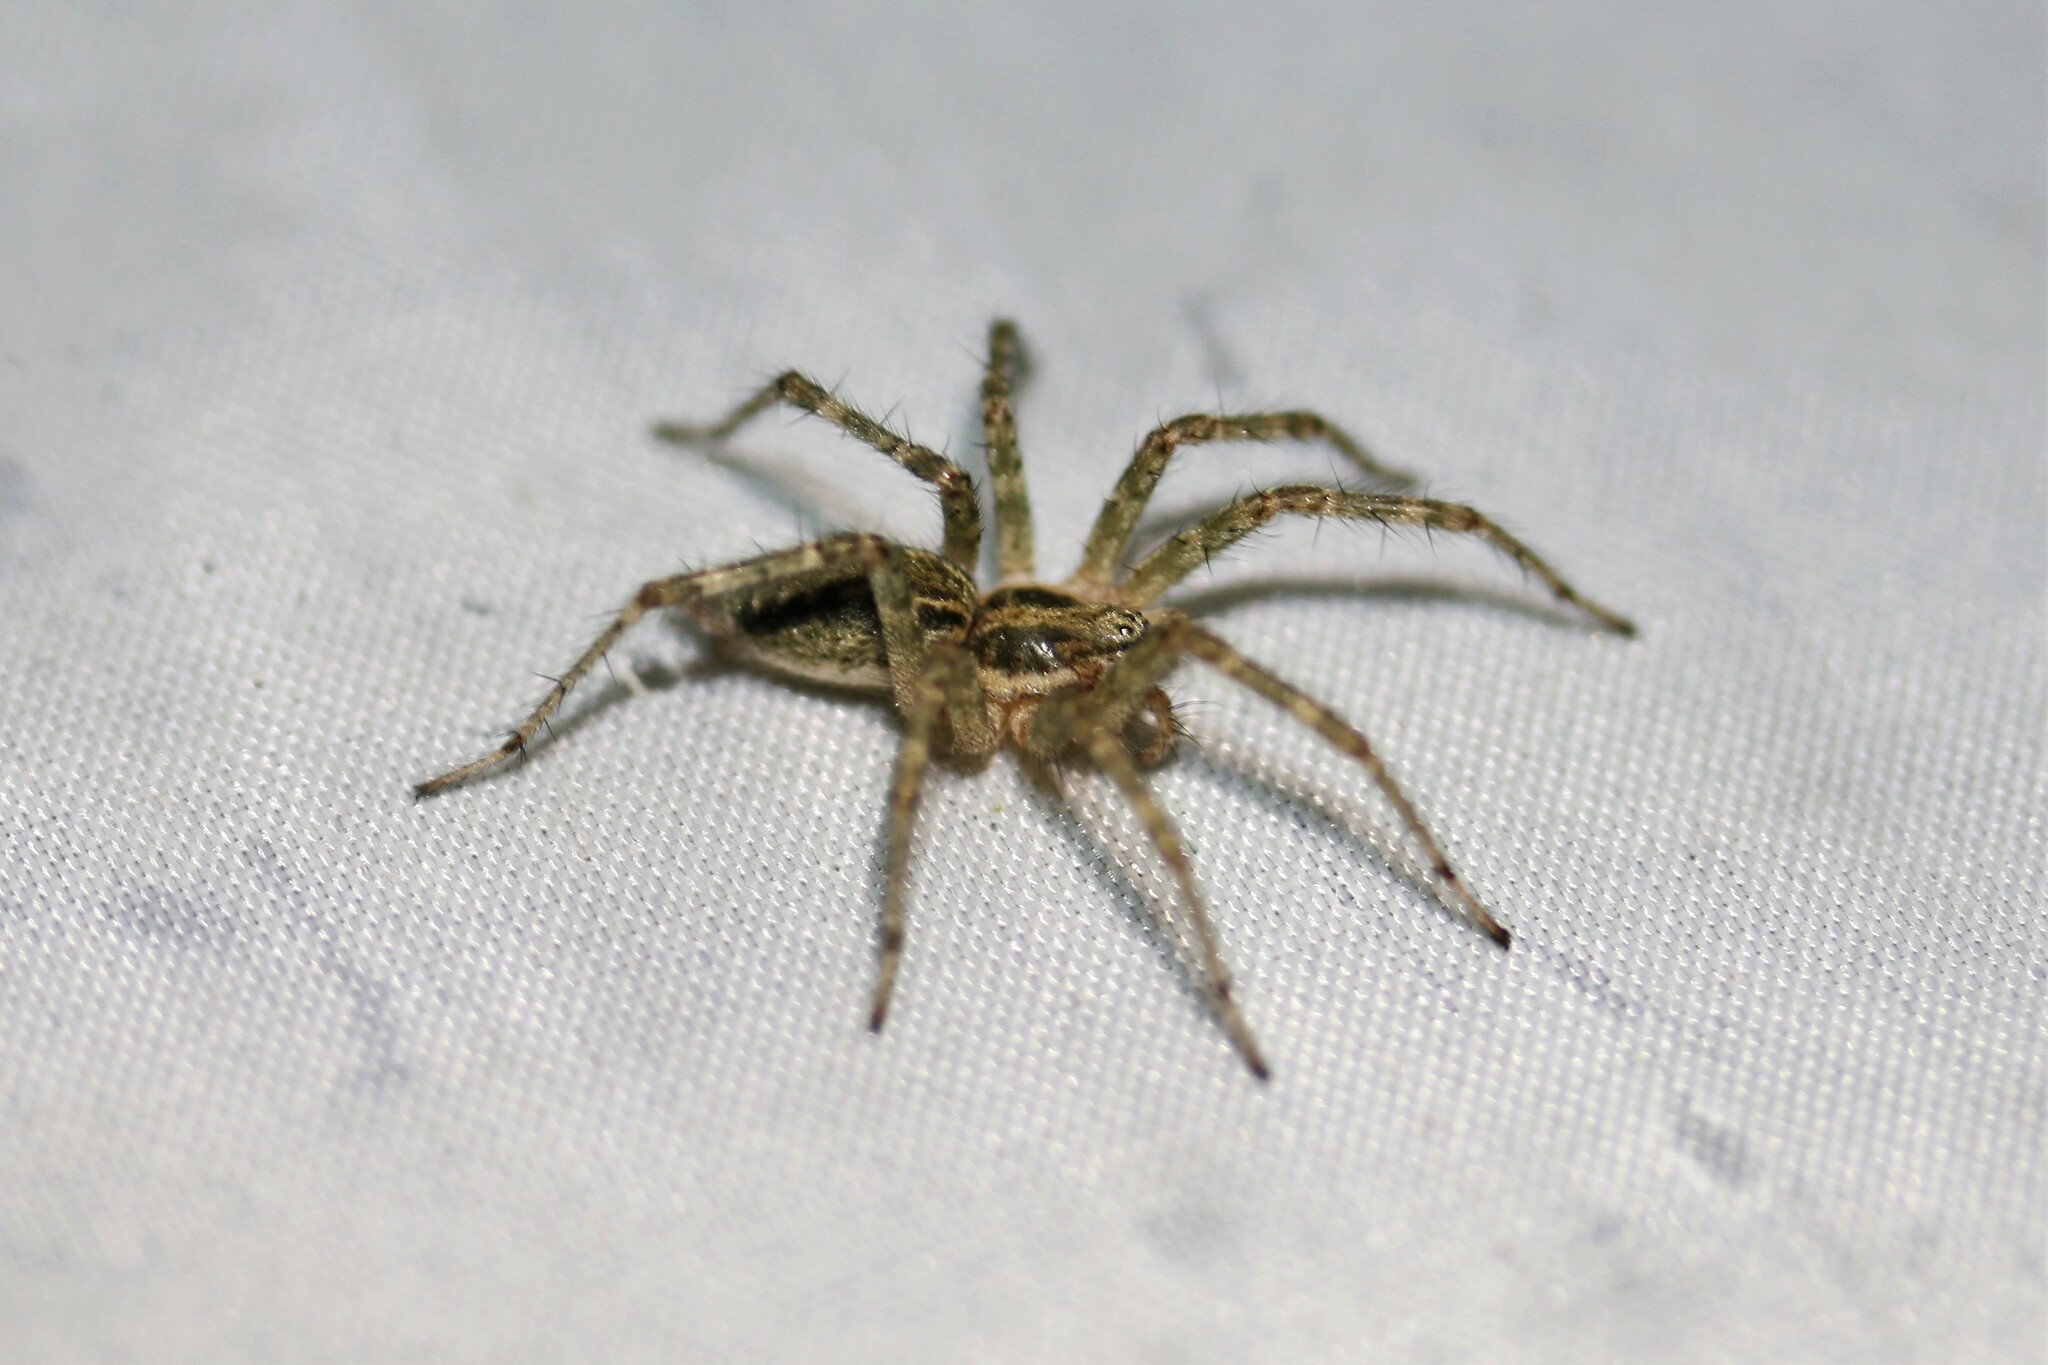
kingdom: Animalia
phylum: Arthropoda
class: Arachnida
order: Araneae
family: Agelenidae
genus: Allagelena
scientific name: Allagelena gracilens
